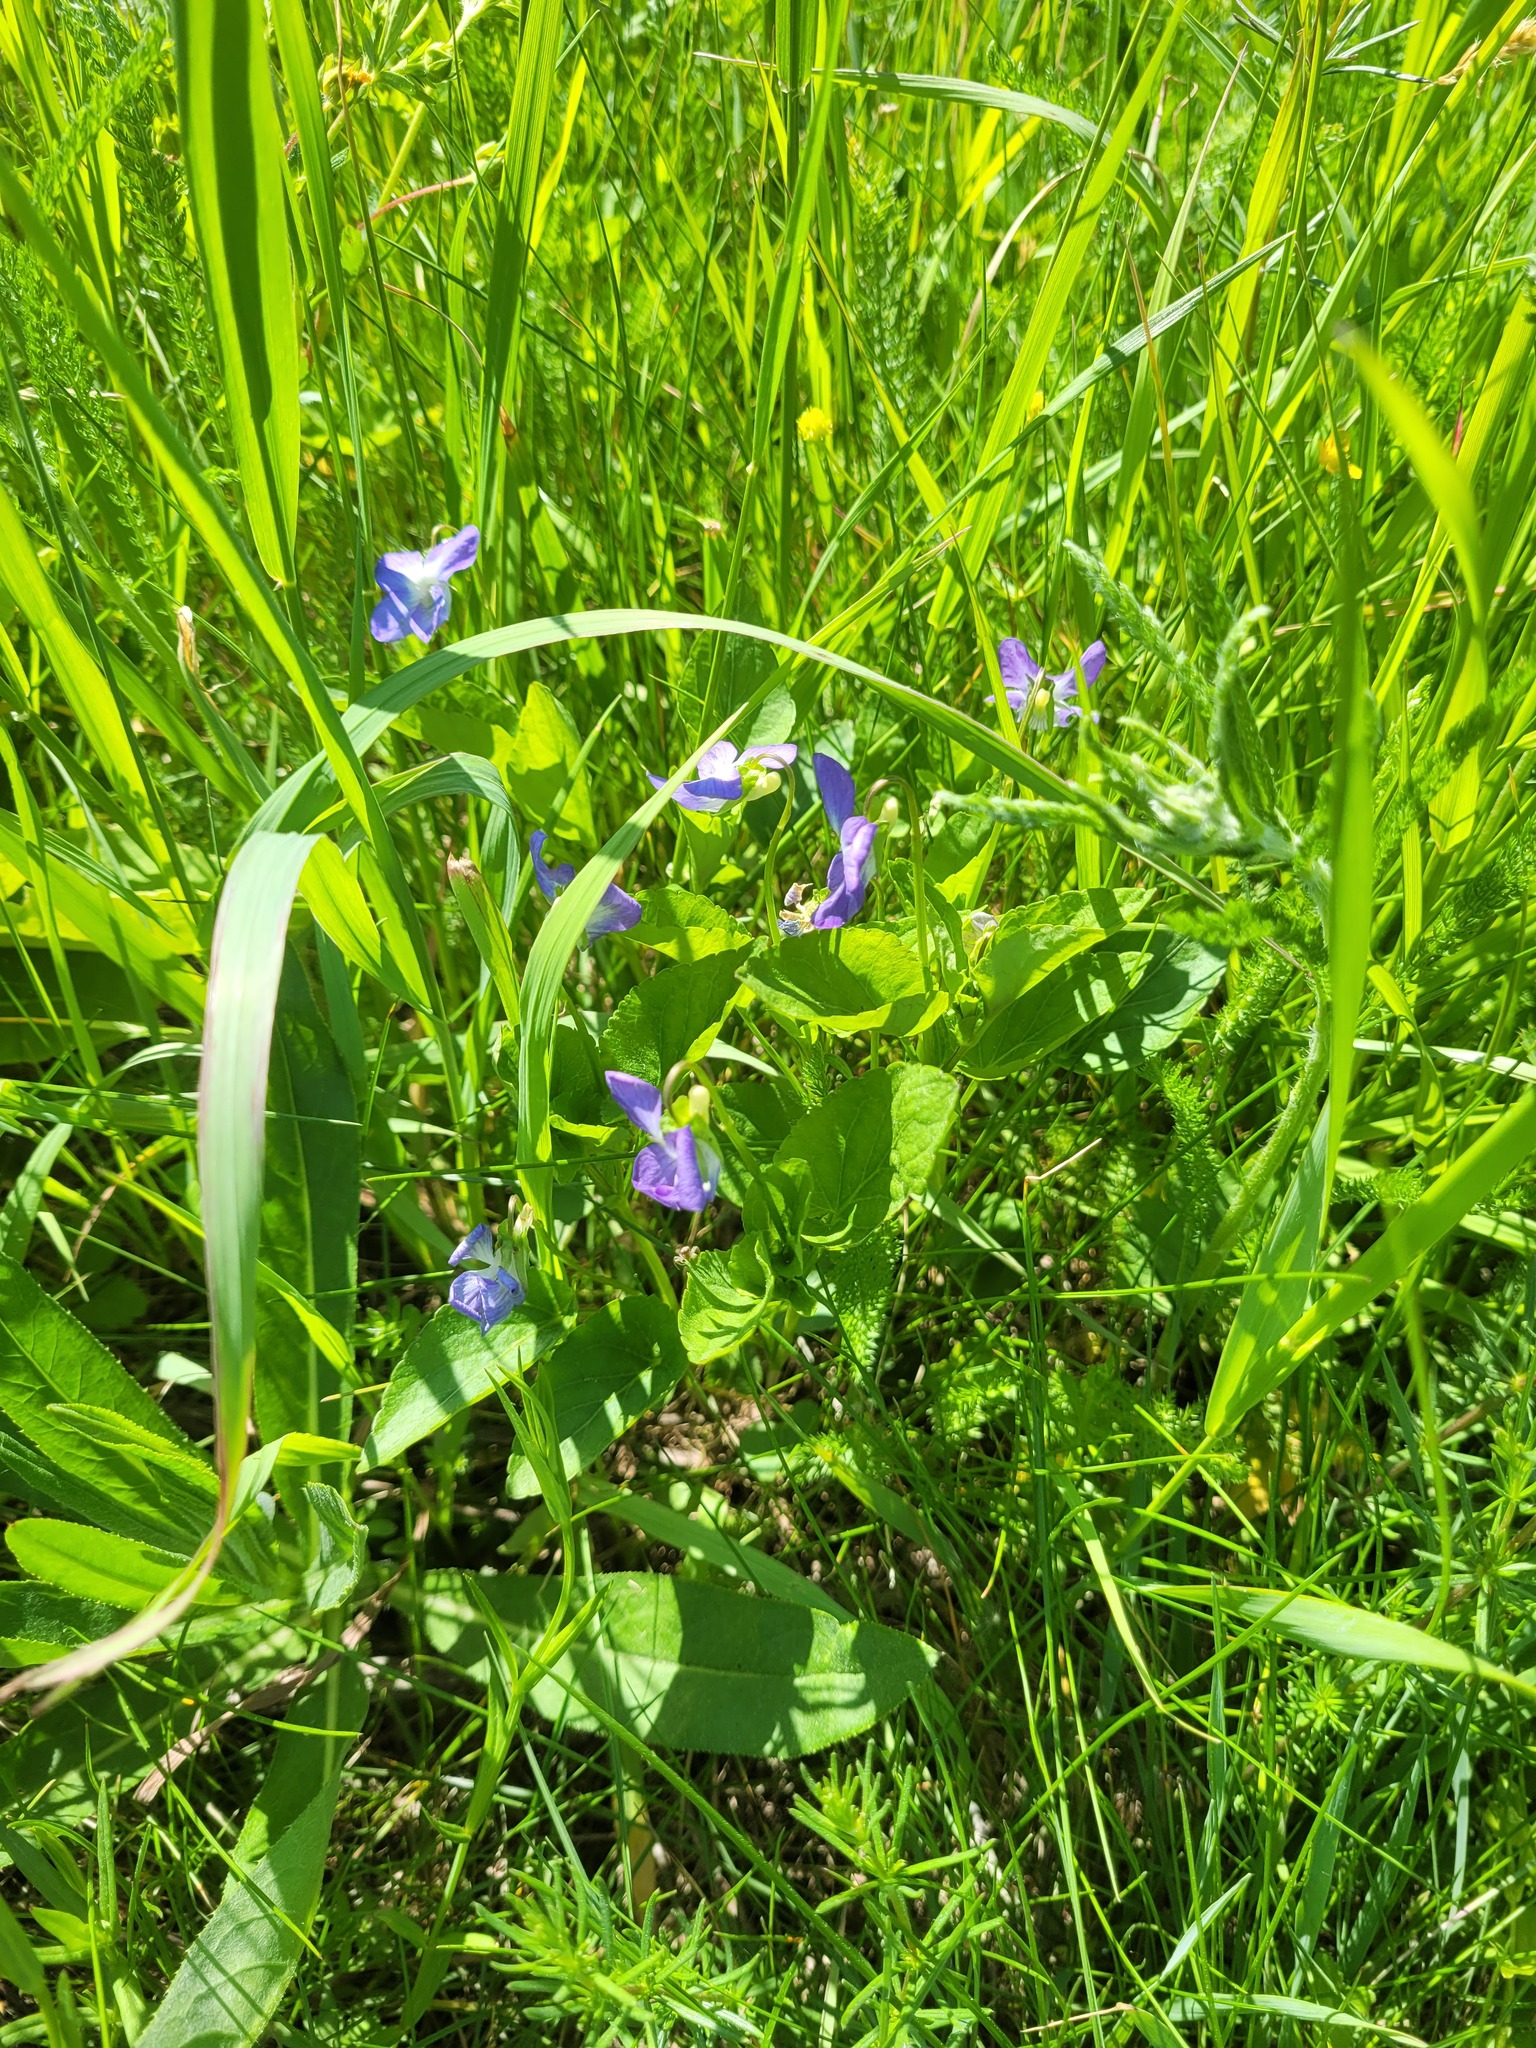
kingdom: Plantae
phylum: Tracheophyta
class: Magnoliopsida
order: Malpighiales
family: Violaceae
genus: Viola
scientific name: Viola canina
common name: Heath dog-violet
